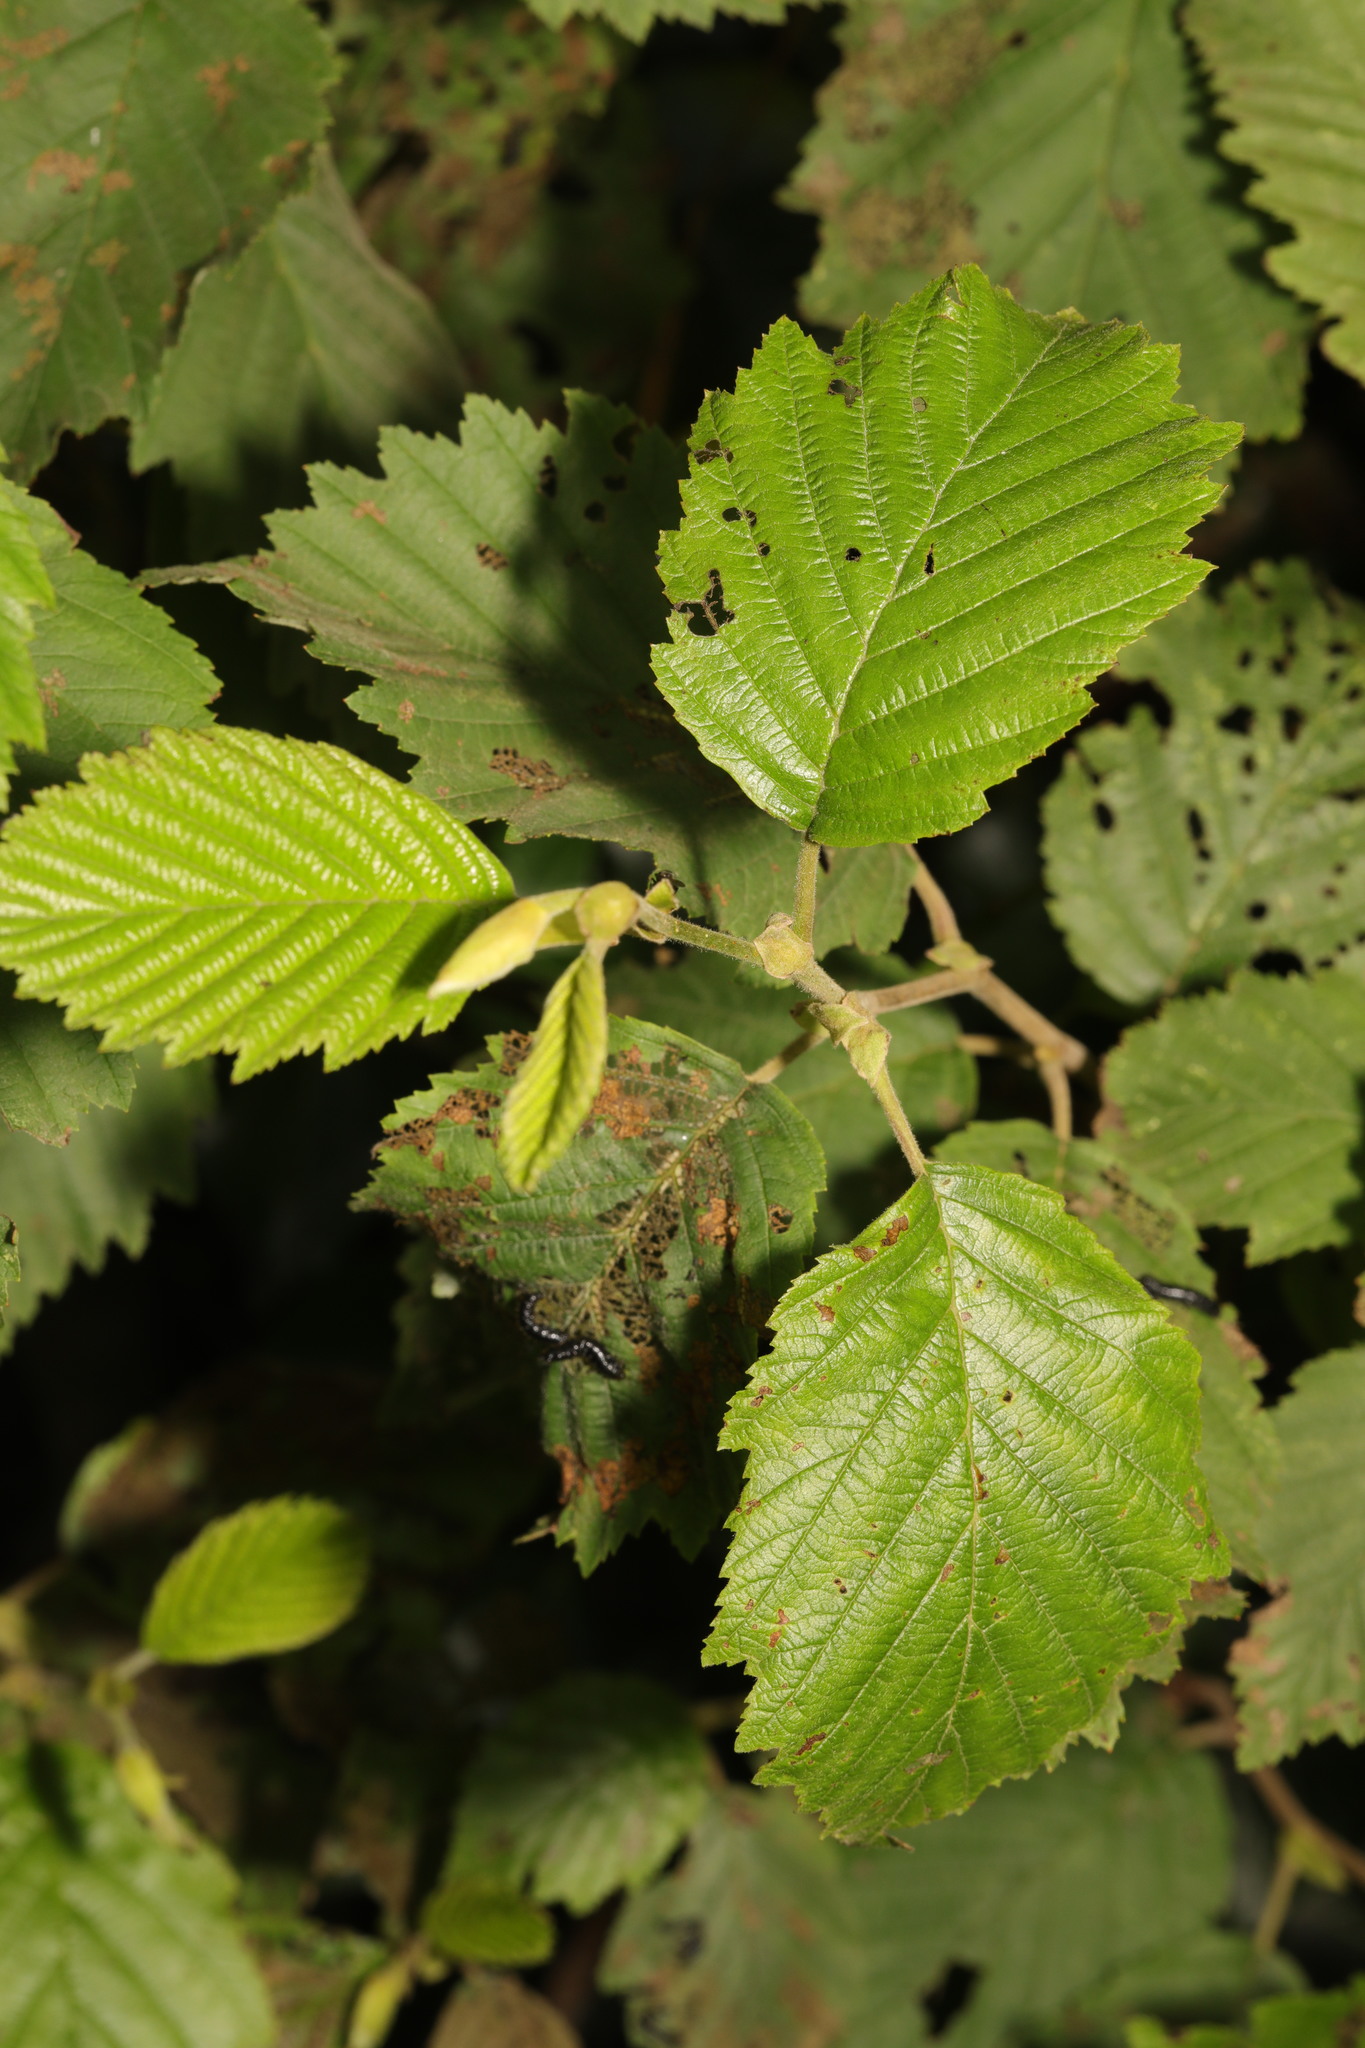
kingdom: Plantae
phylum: Tracheophyta
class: Magnoliopsida
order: Fagales
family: Betulaceae
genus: Alnus
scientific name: Alnus incana
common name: Grey alder
